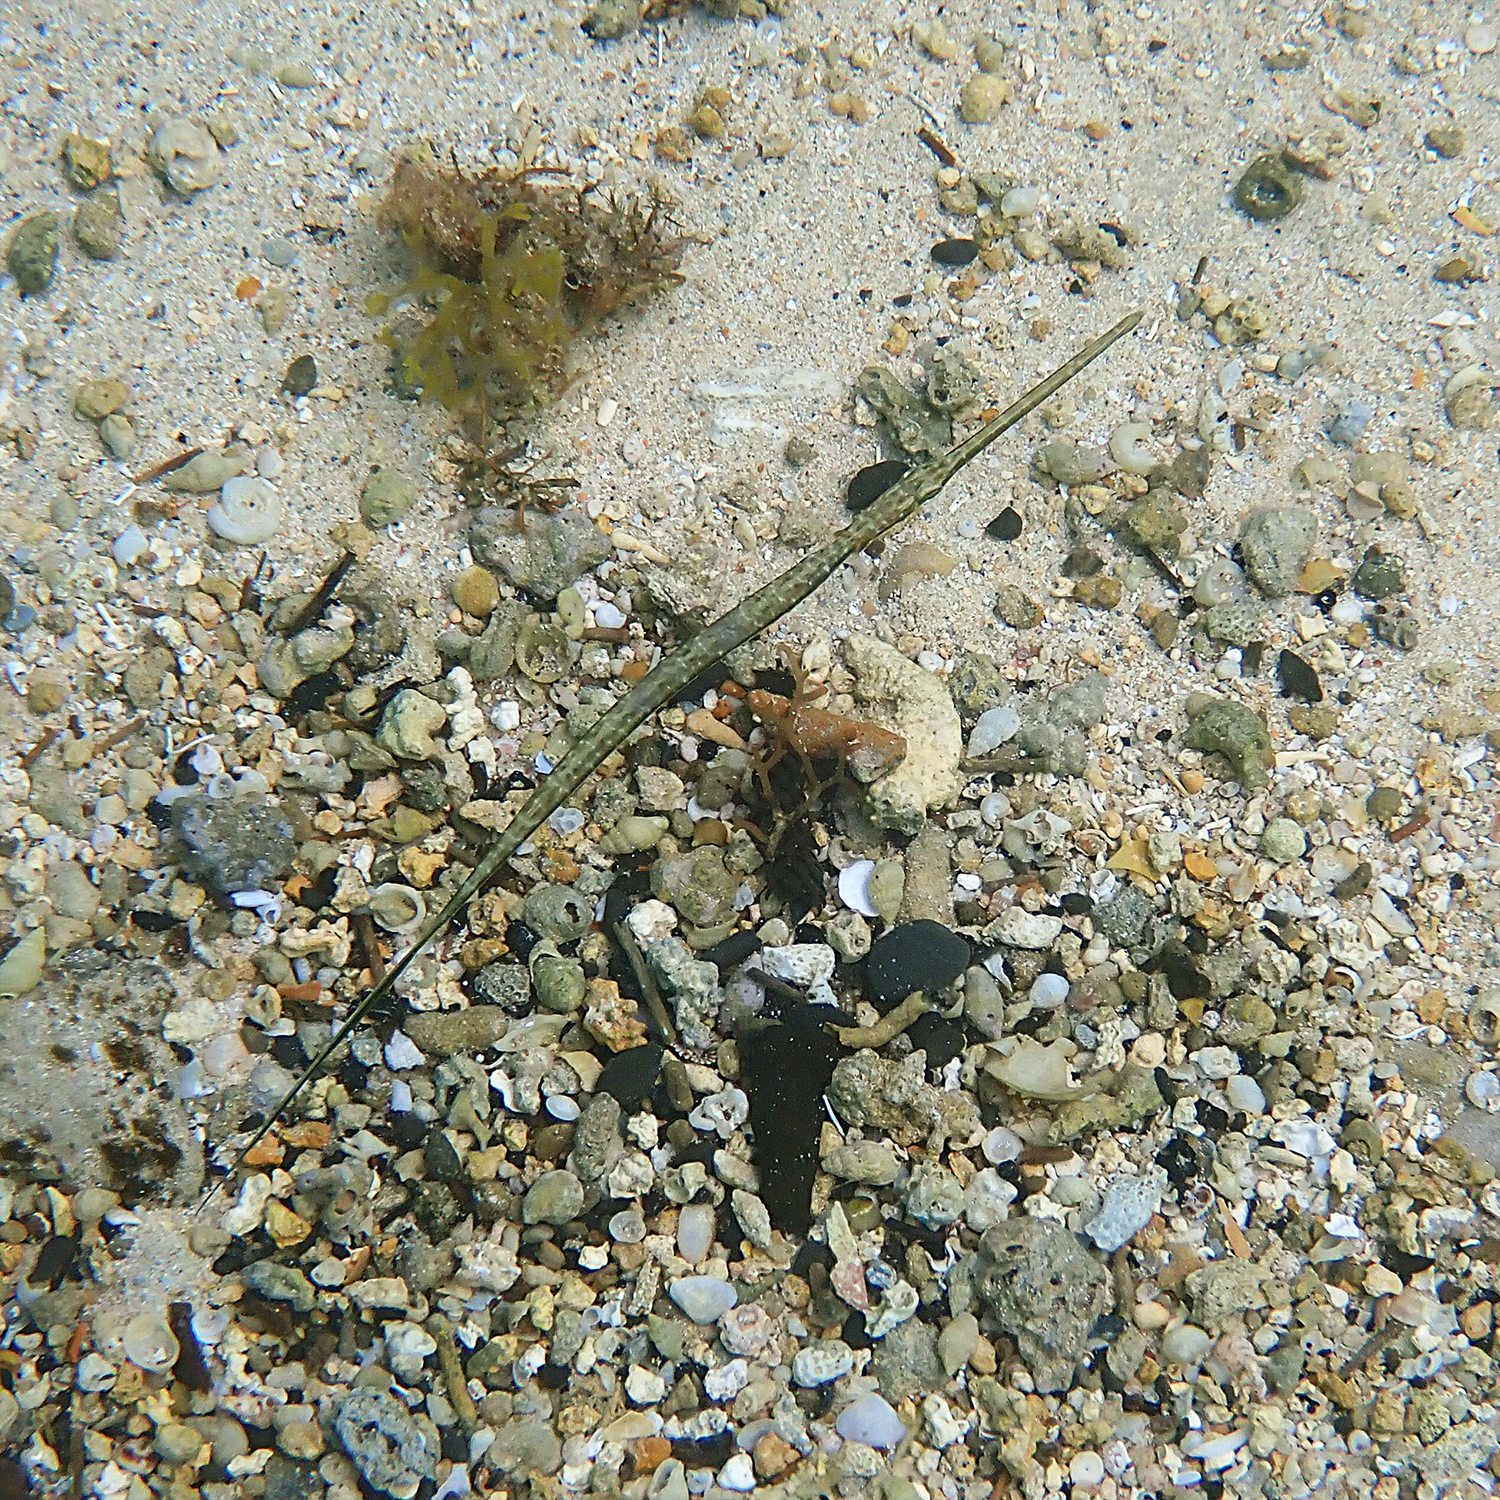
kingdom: Animalia
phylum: Chordata
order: Syngnathiformes
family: Fistulariidae
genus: Fistularia
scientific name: Fistularia commersonii
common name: Bluespotted cornetfish
